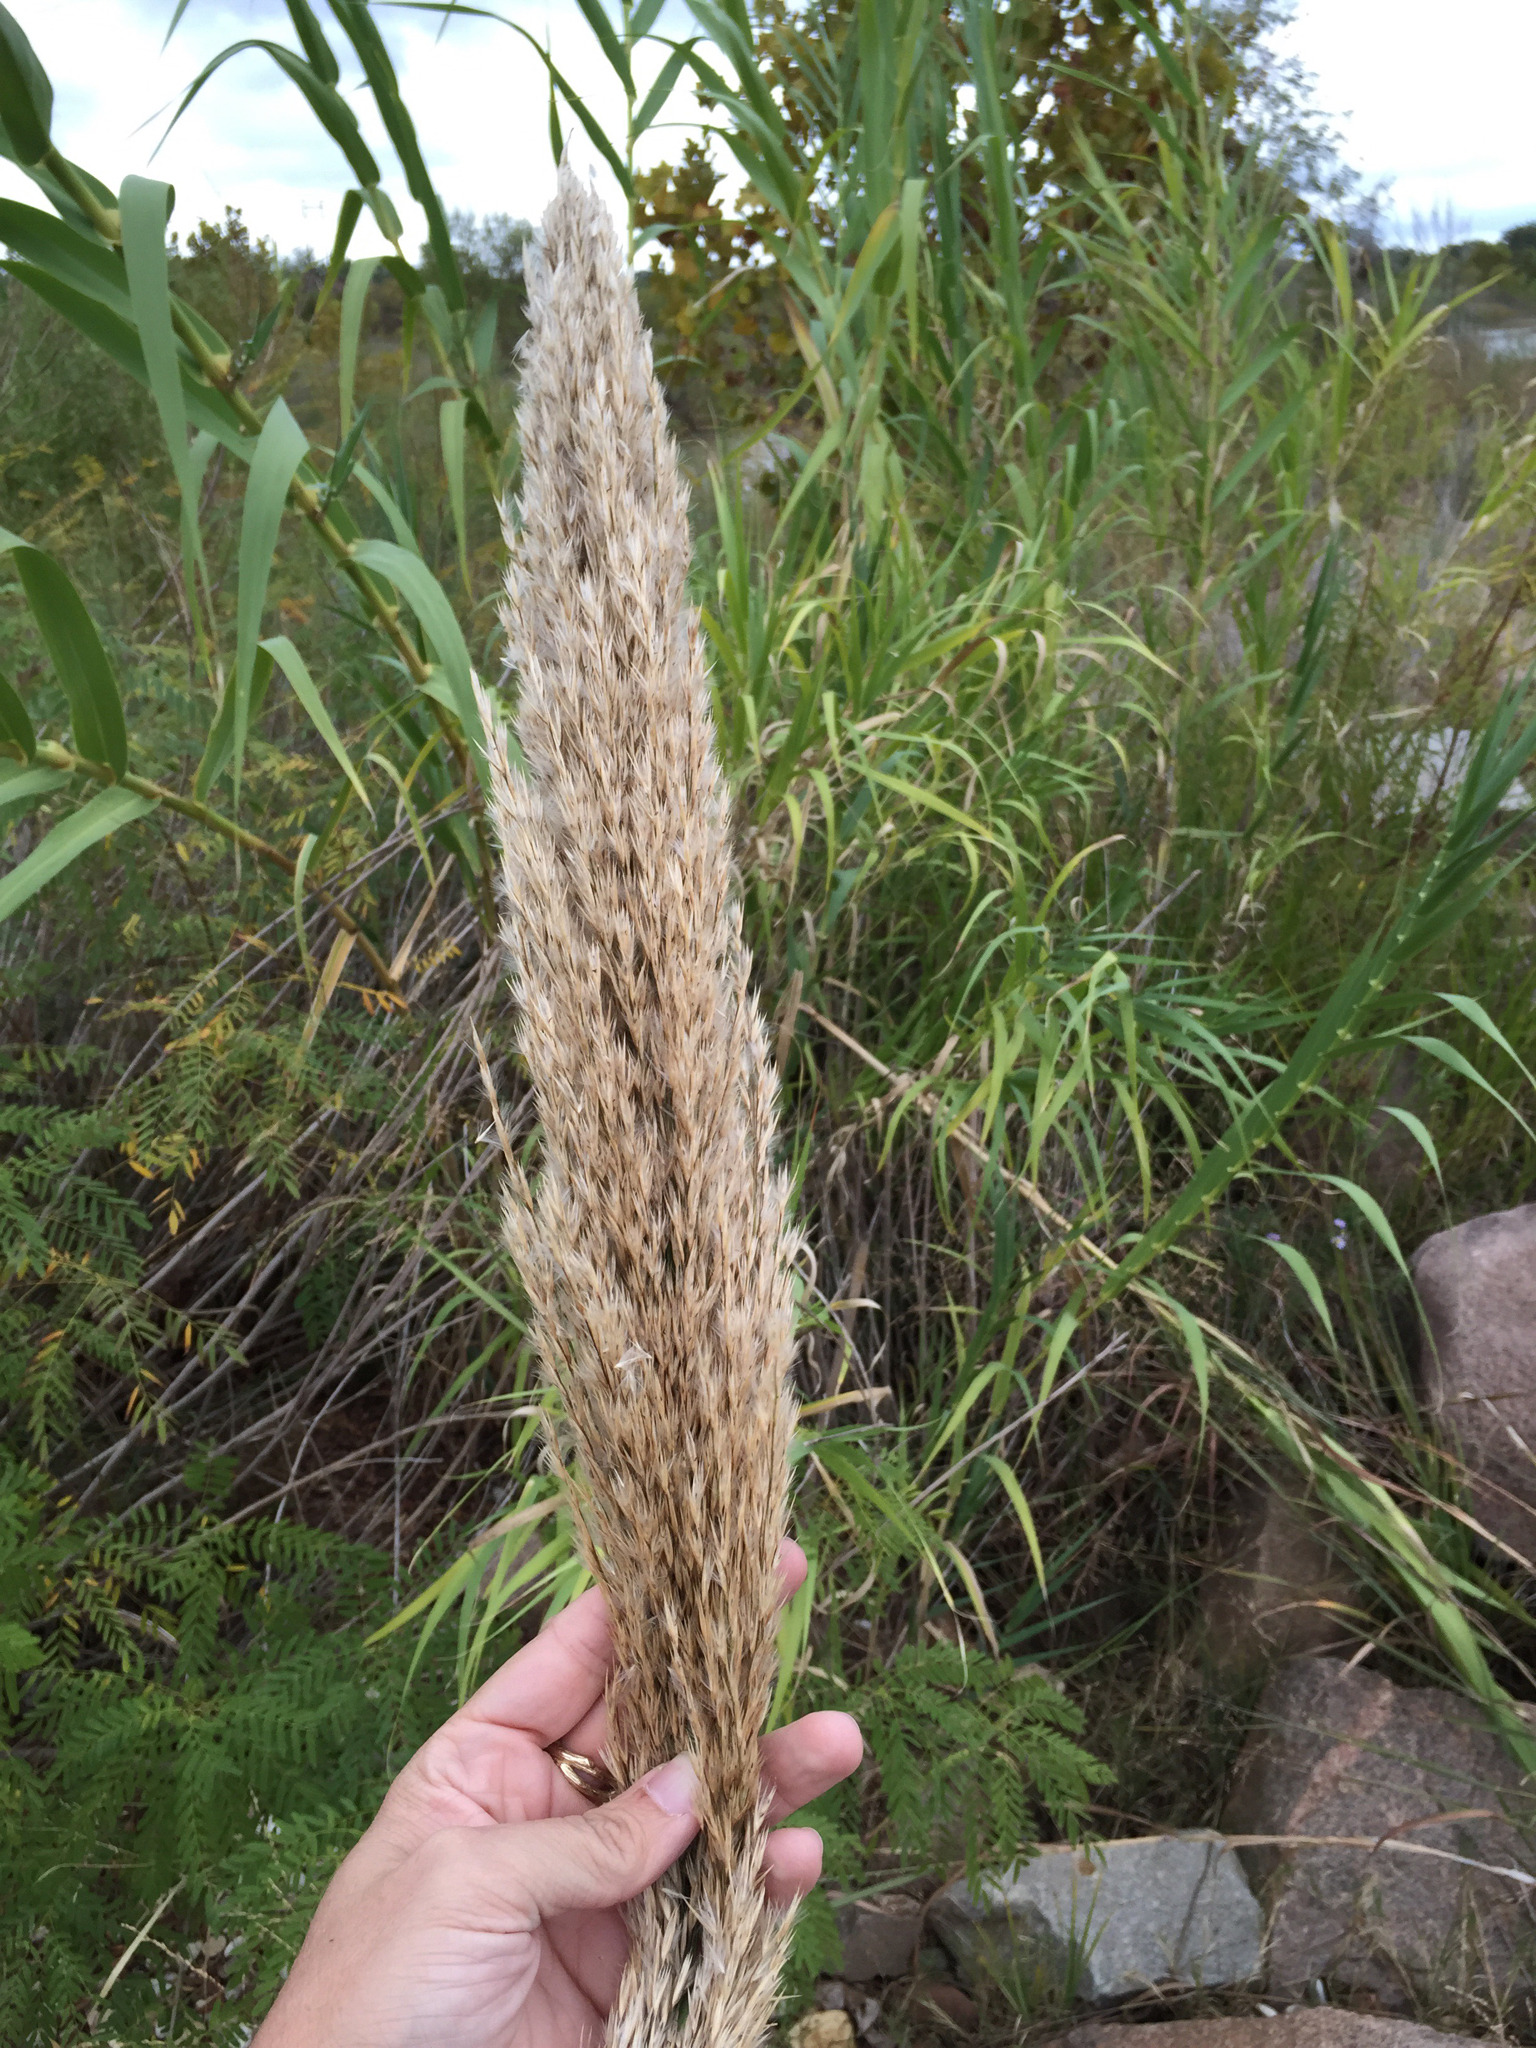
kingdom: Plantae
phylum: Tracheophyta
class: Liliopsida
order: Poales
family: Poaceae
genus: Arundo
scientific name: Arundo donax
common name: Giant reed
